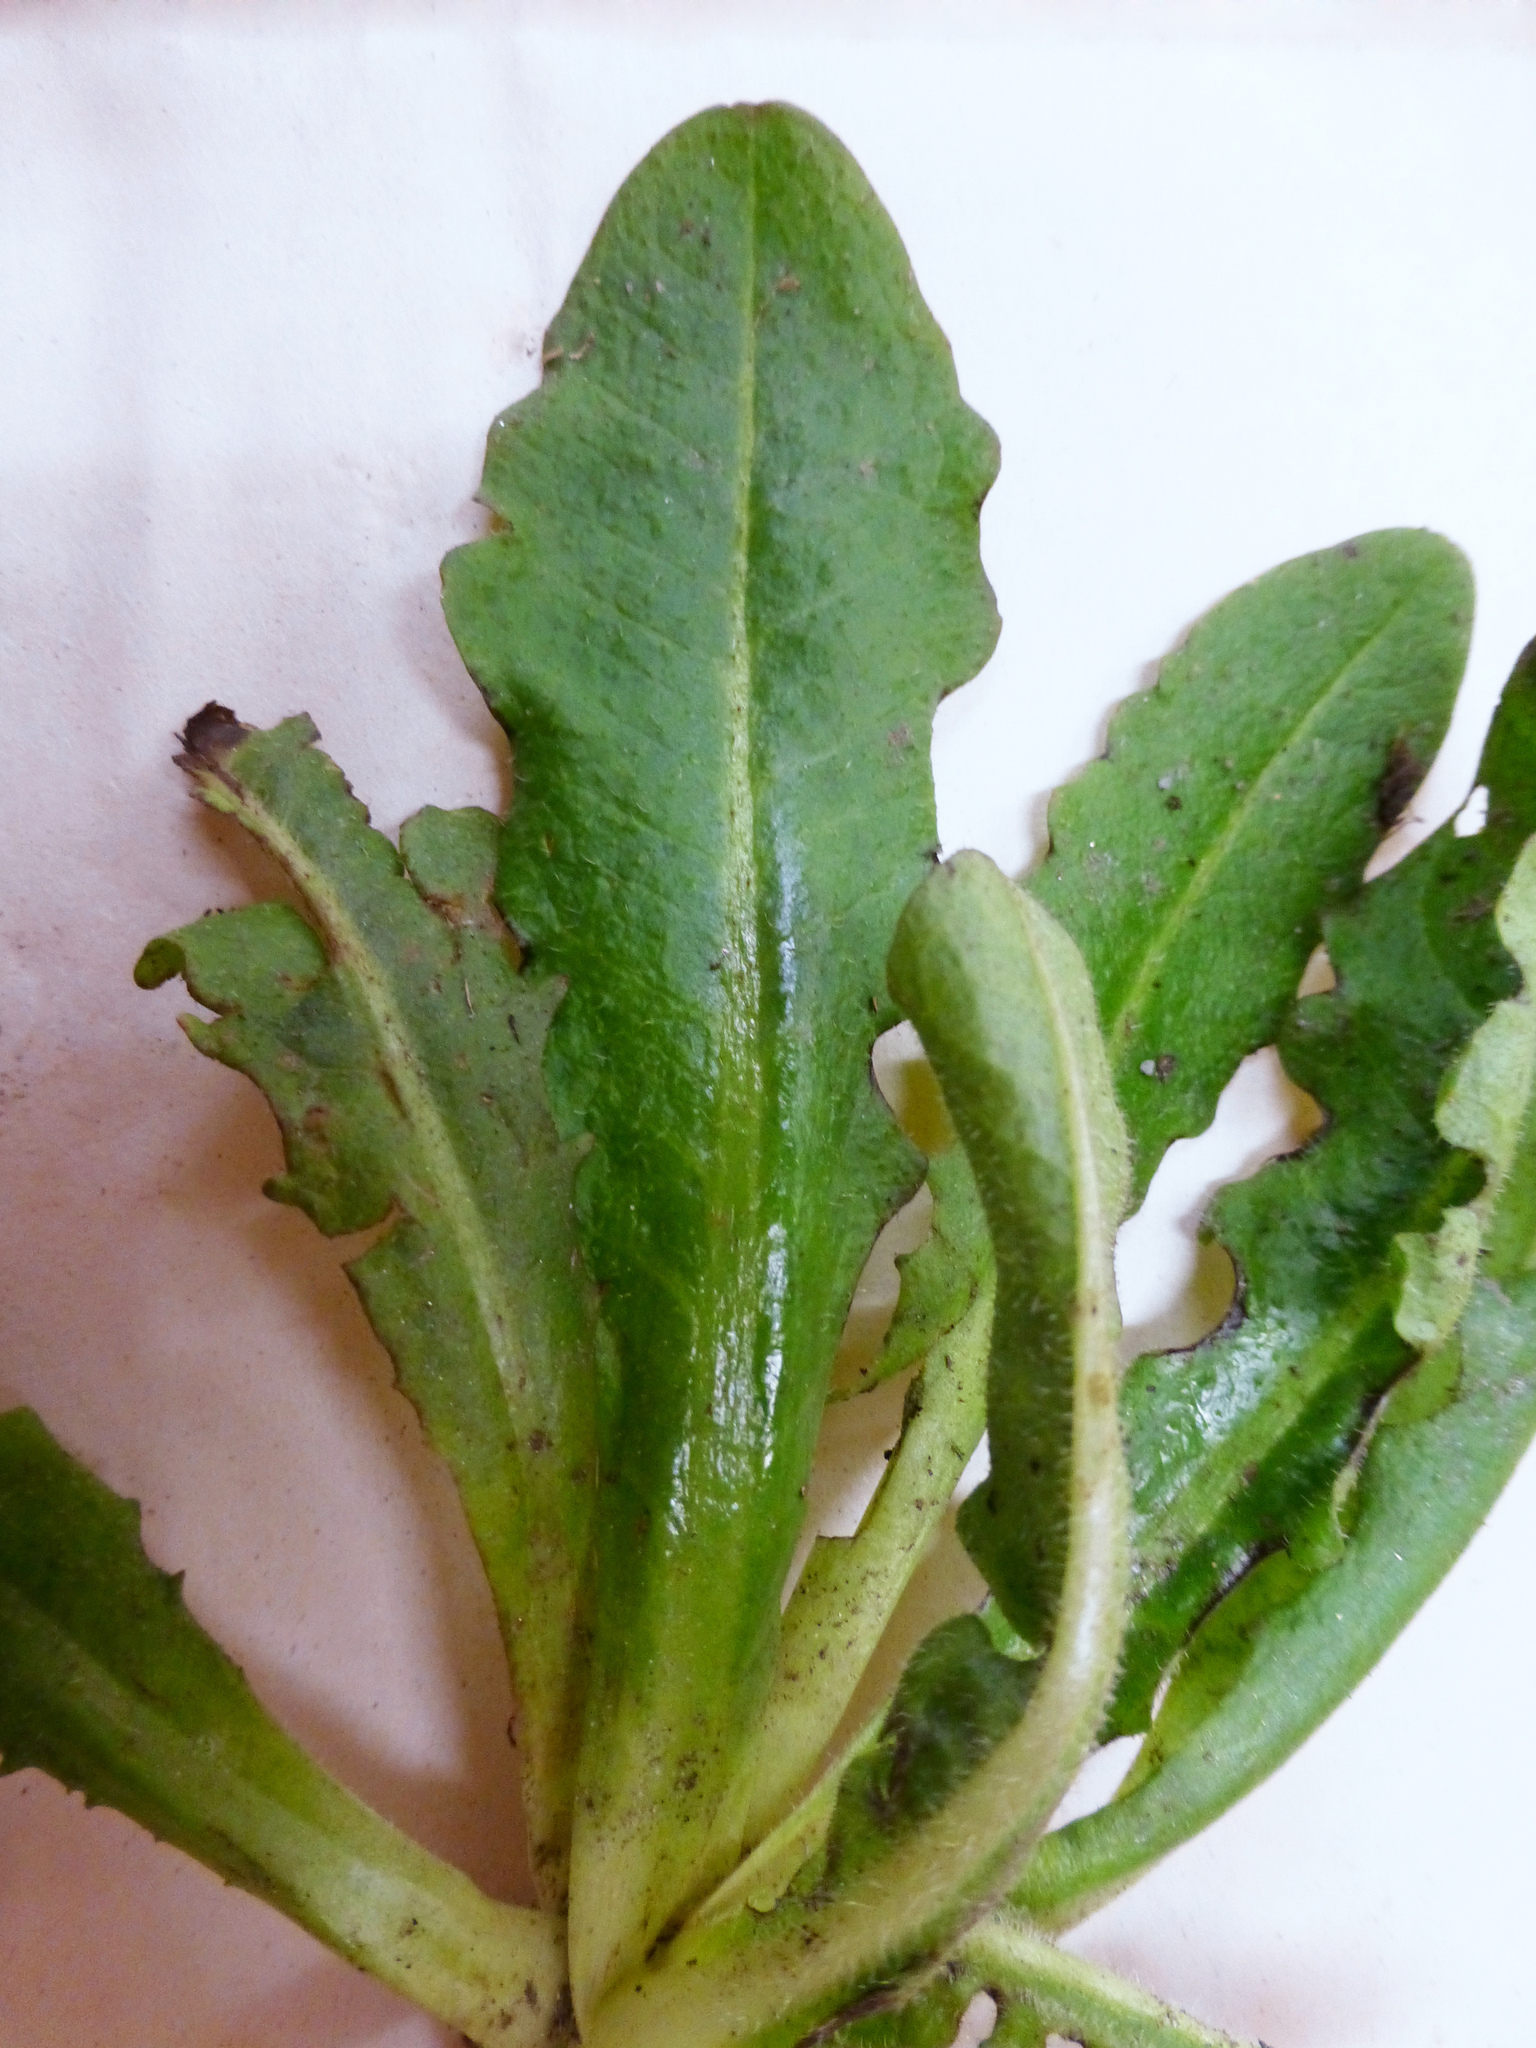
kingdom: Plantae
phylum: Tracheophyta
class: Magnoliopsida
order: Asterales
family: Asteraceae
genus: Hypochaeris
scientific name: Hypochaeris radicata
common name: Flatweed
